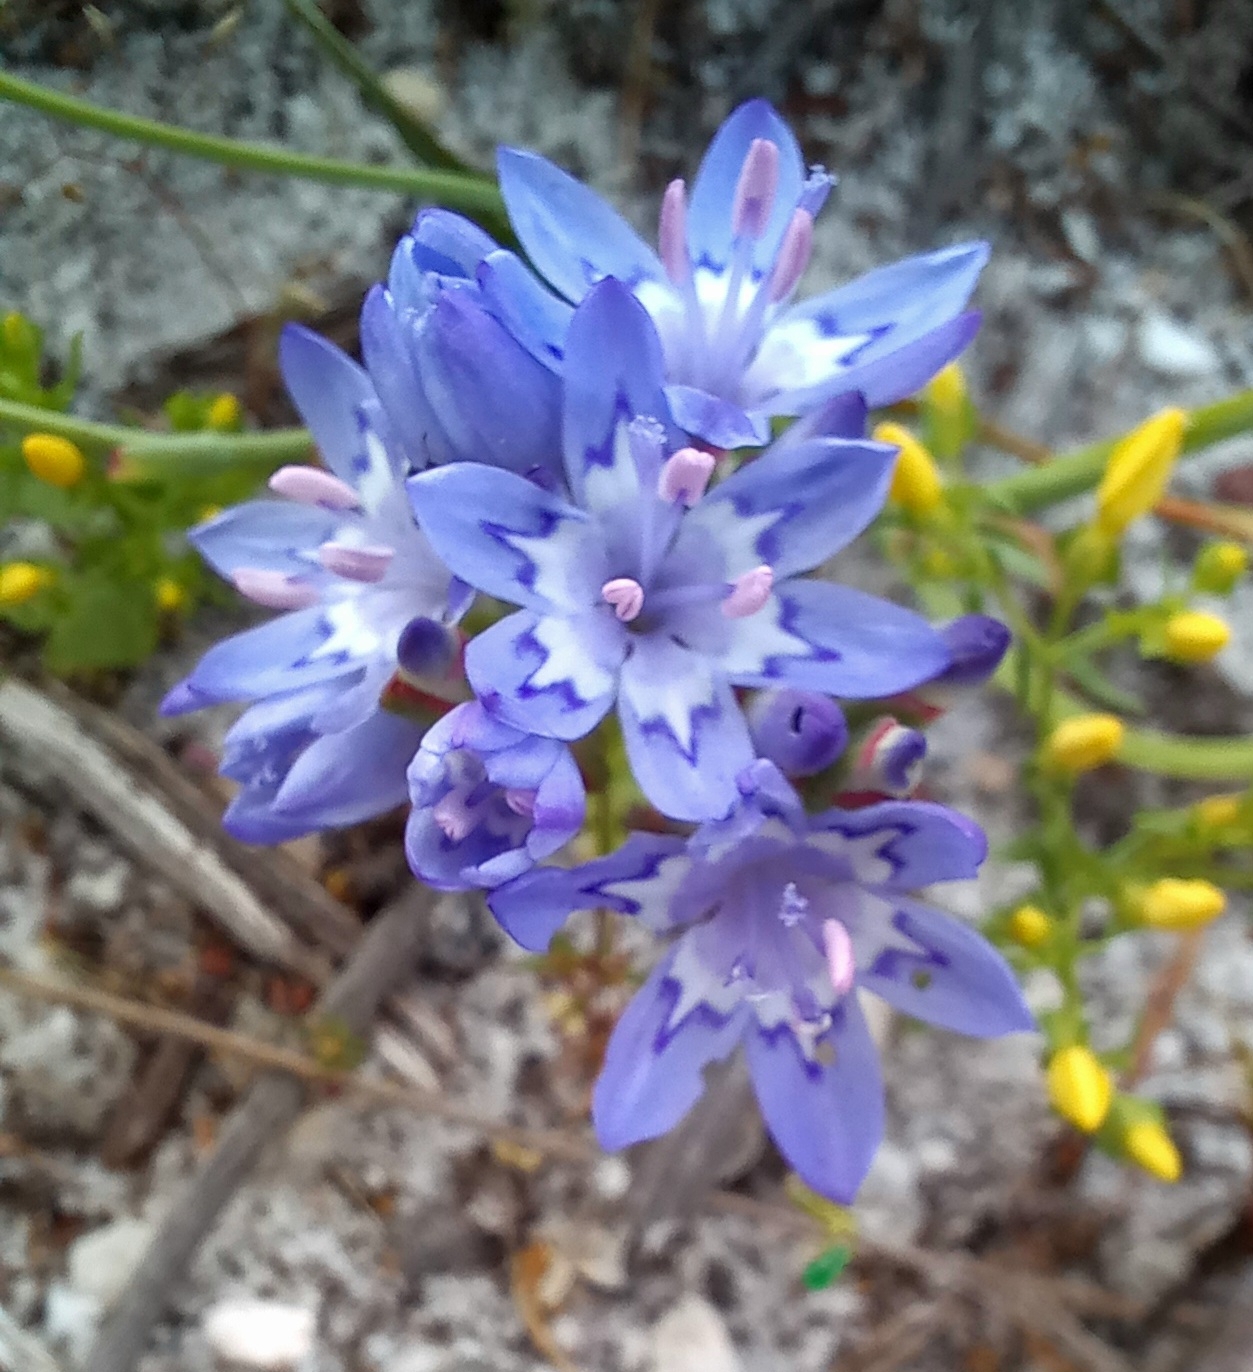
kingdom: Plantae
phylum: Tracheophyta
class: Liliopsida
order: Asparagales
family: Iridaceae
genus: Codonorhiza
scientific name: Codonorhiza corymbosa
